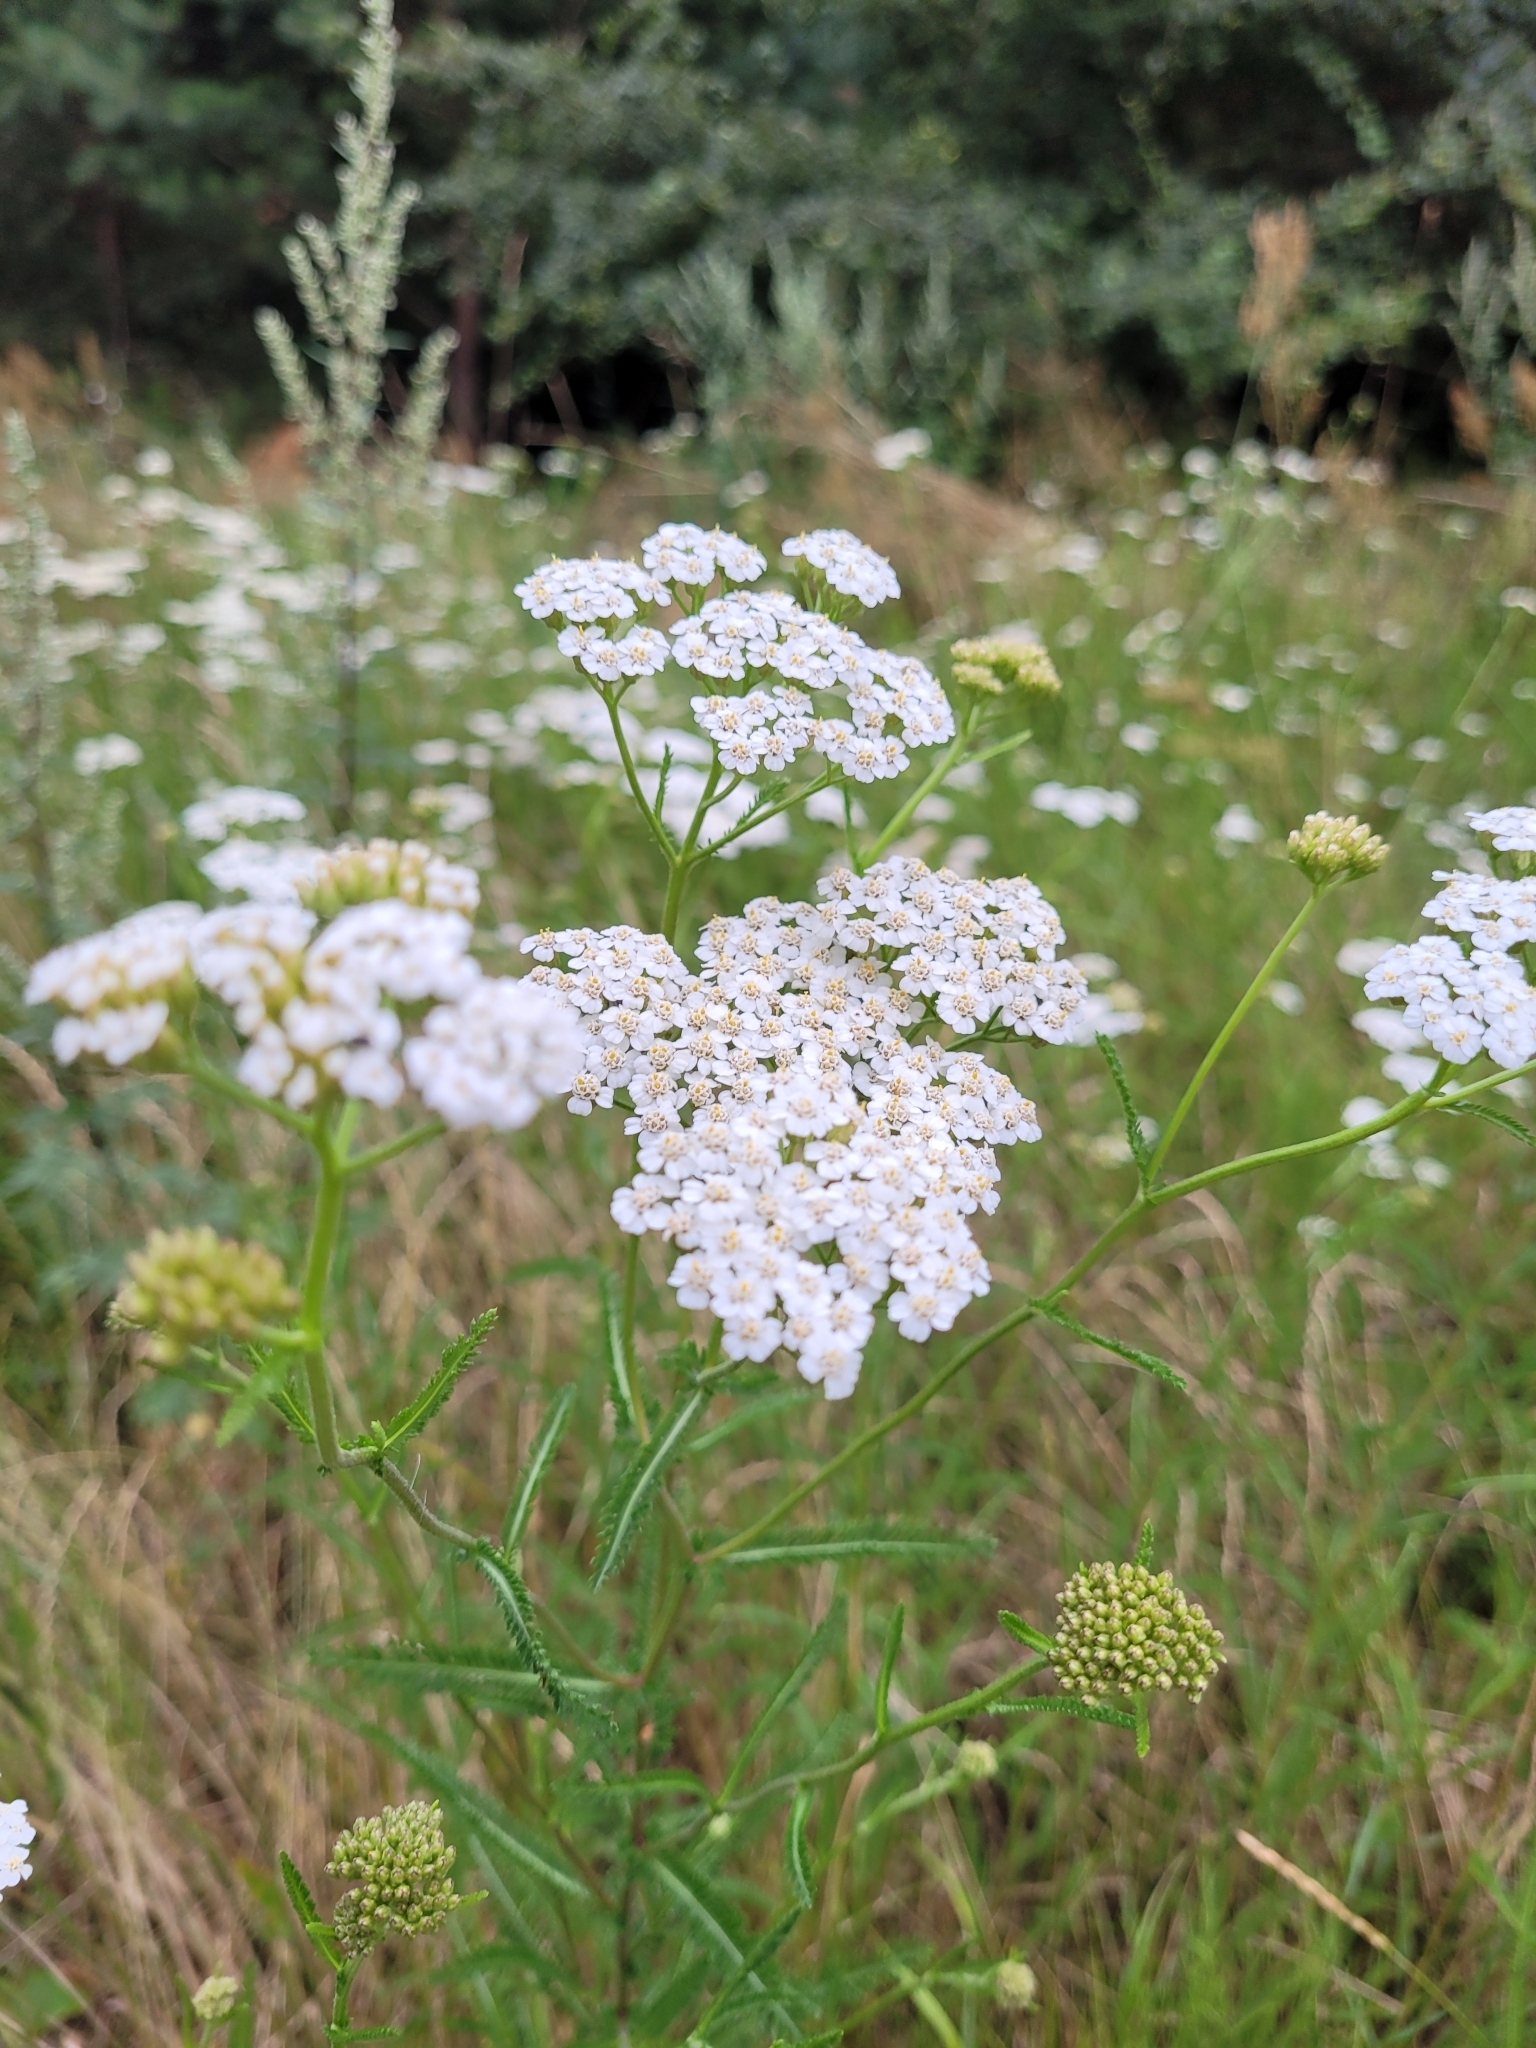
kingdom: Plantae
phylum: Tracheophyta
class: Magnoliopsida
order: Asterales
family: Asteraceae
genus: Achillea
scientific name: Achillea millefolium
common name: Yarrow
